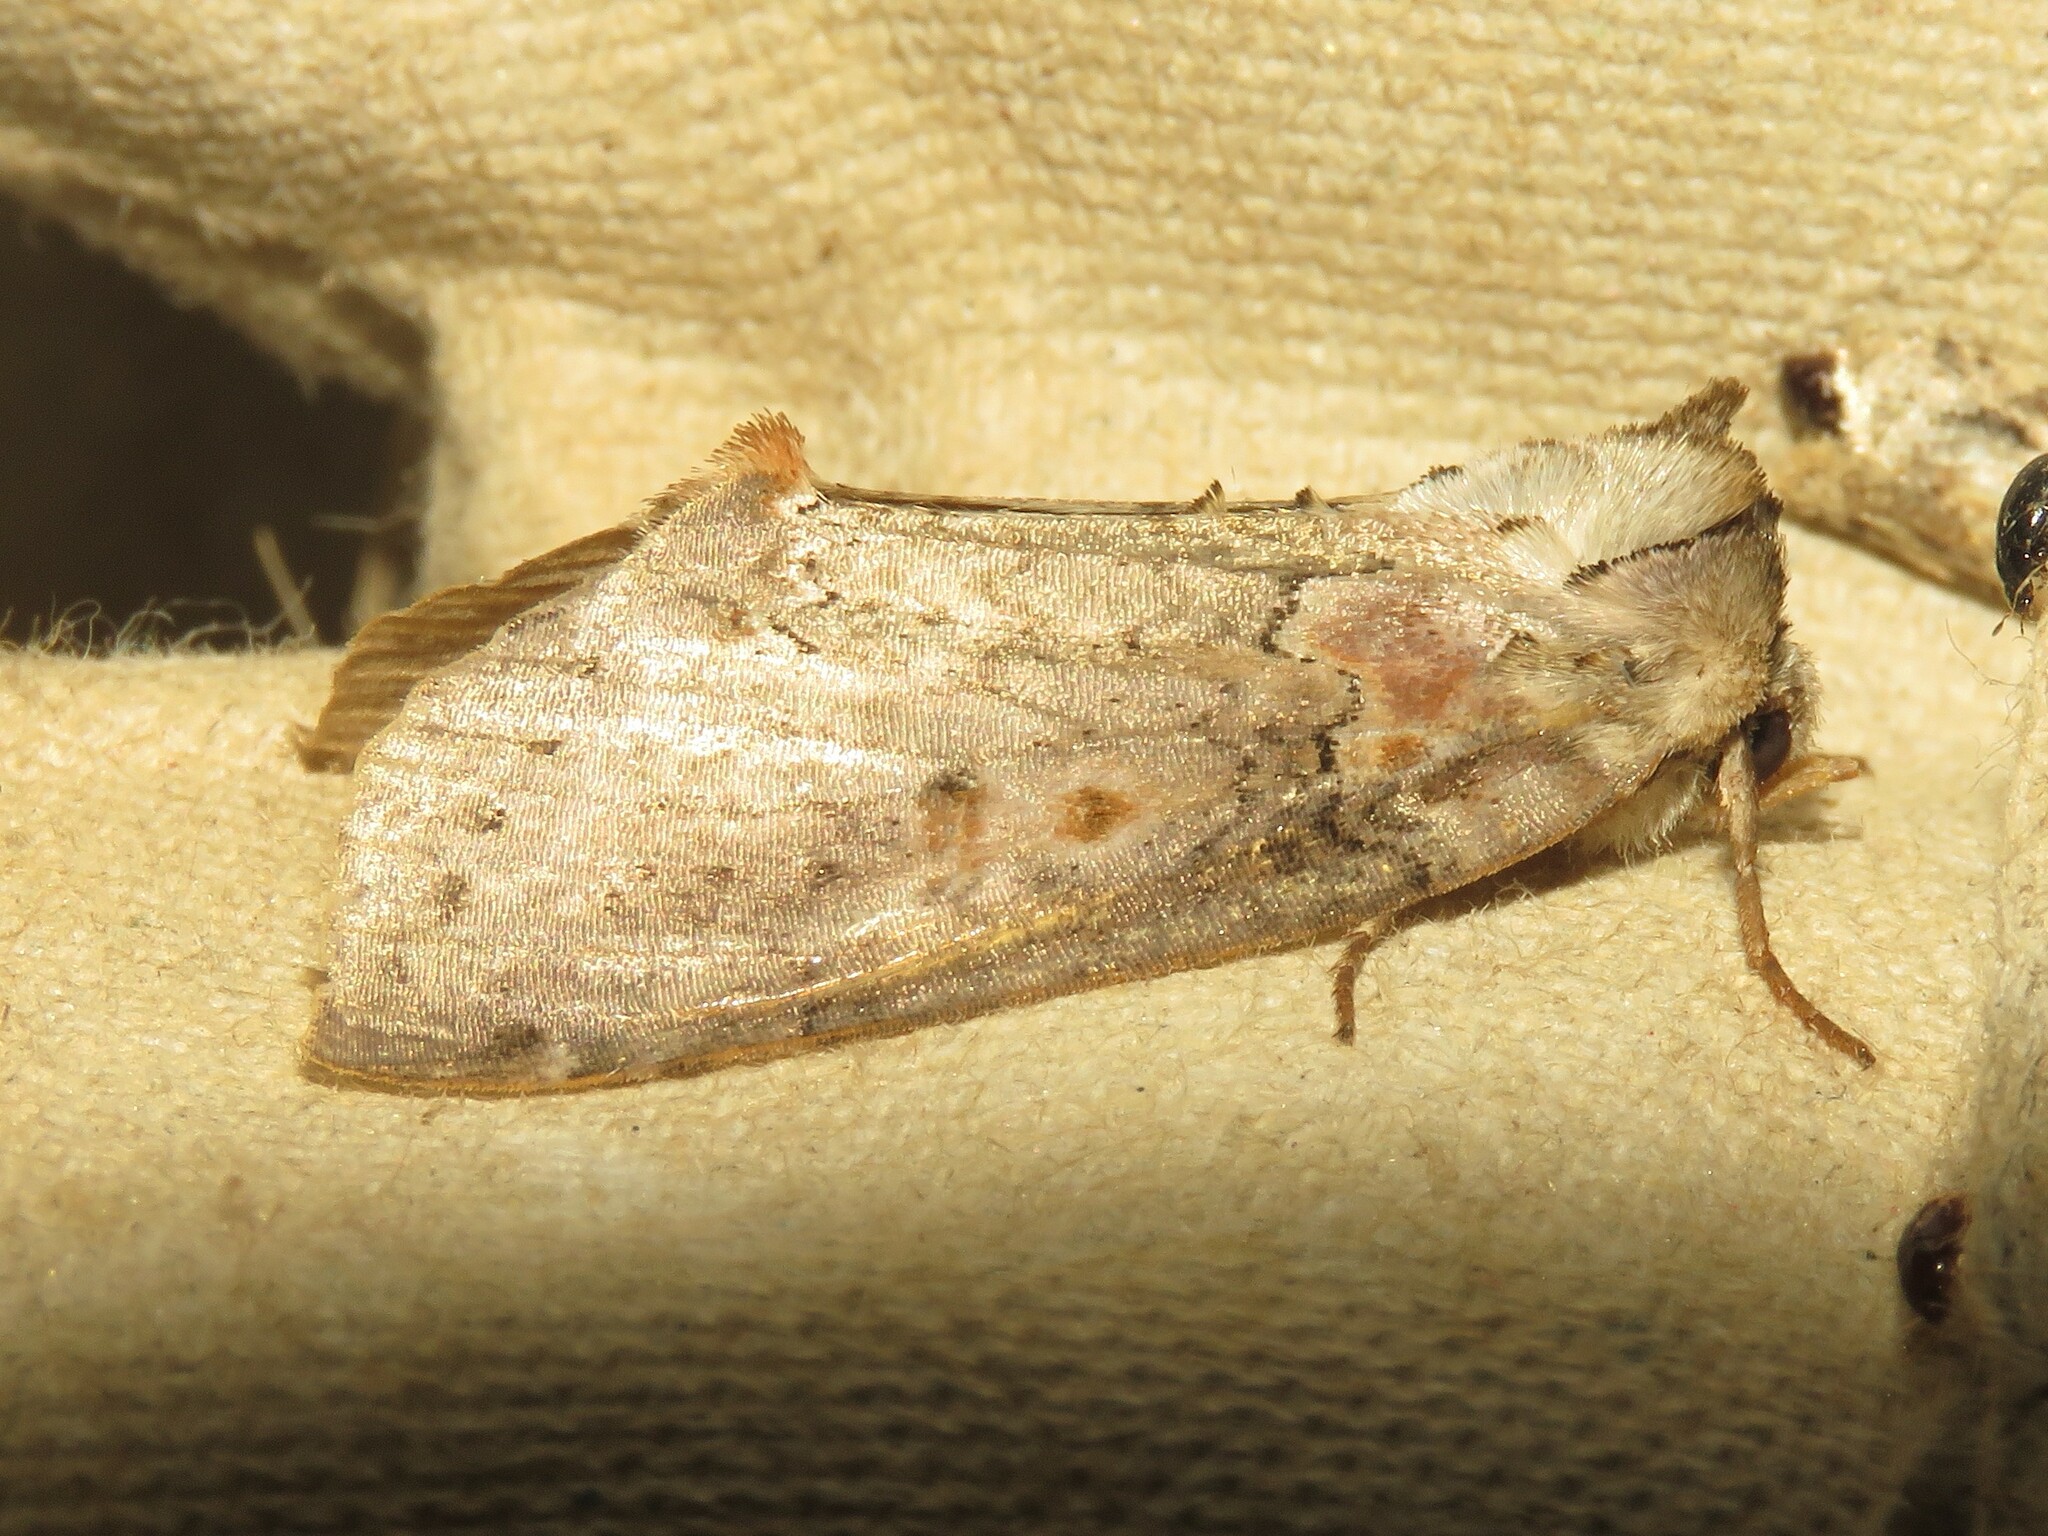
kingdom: Animalia
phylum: Arthropoda
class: Insecta
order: Lepidoptera
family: Drepanidae
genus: Pseudothyatira
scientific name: Pseudothyatira cymatophoroides
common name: Tufted thyatirid moth
